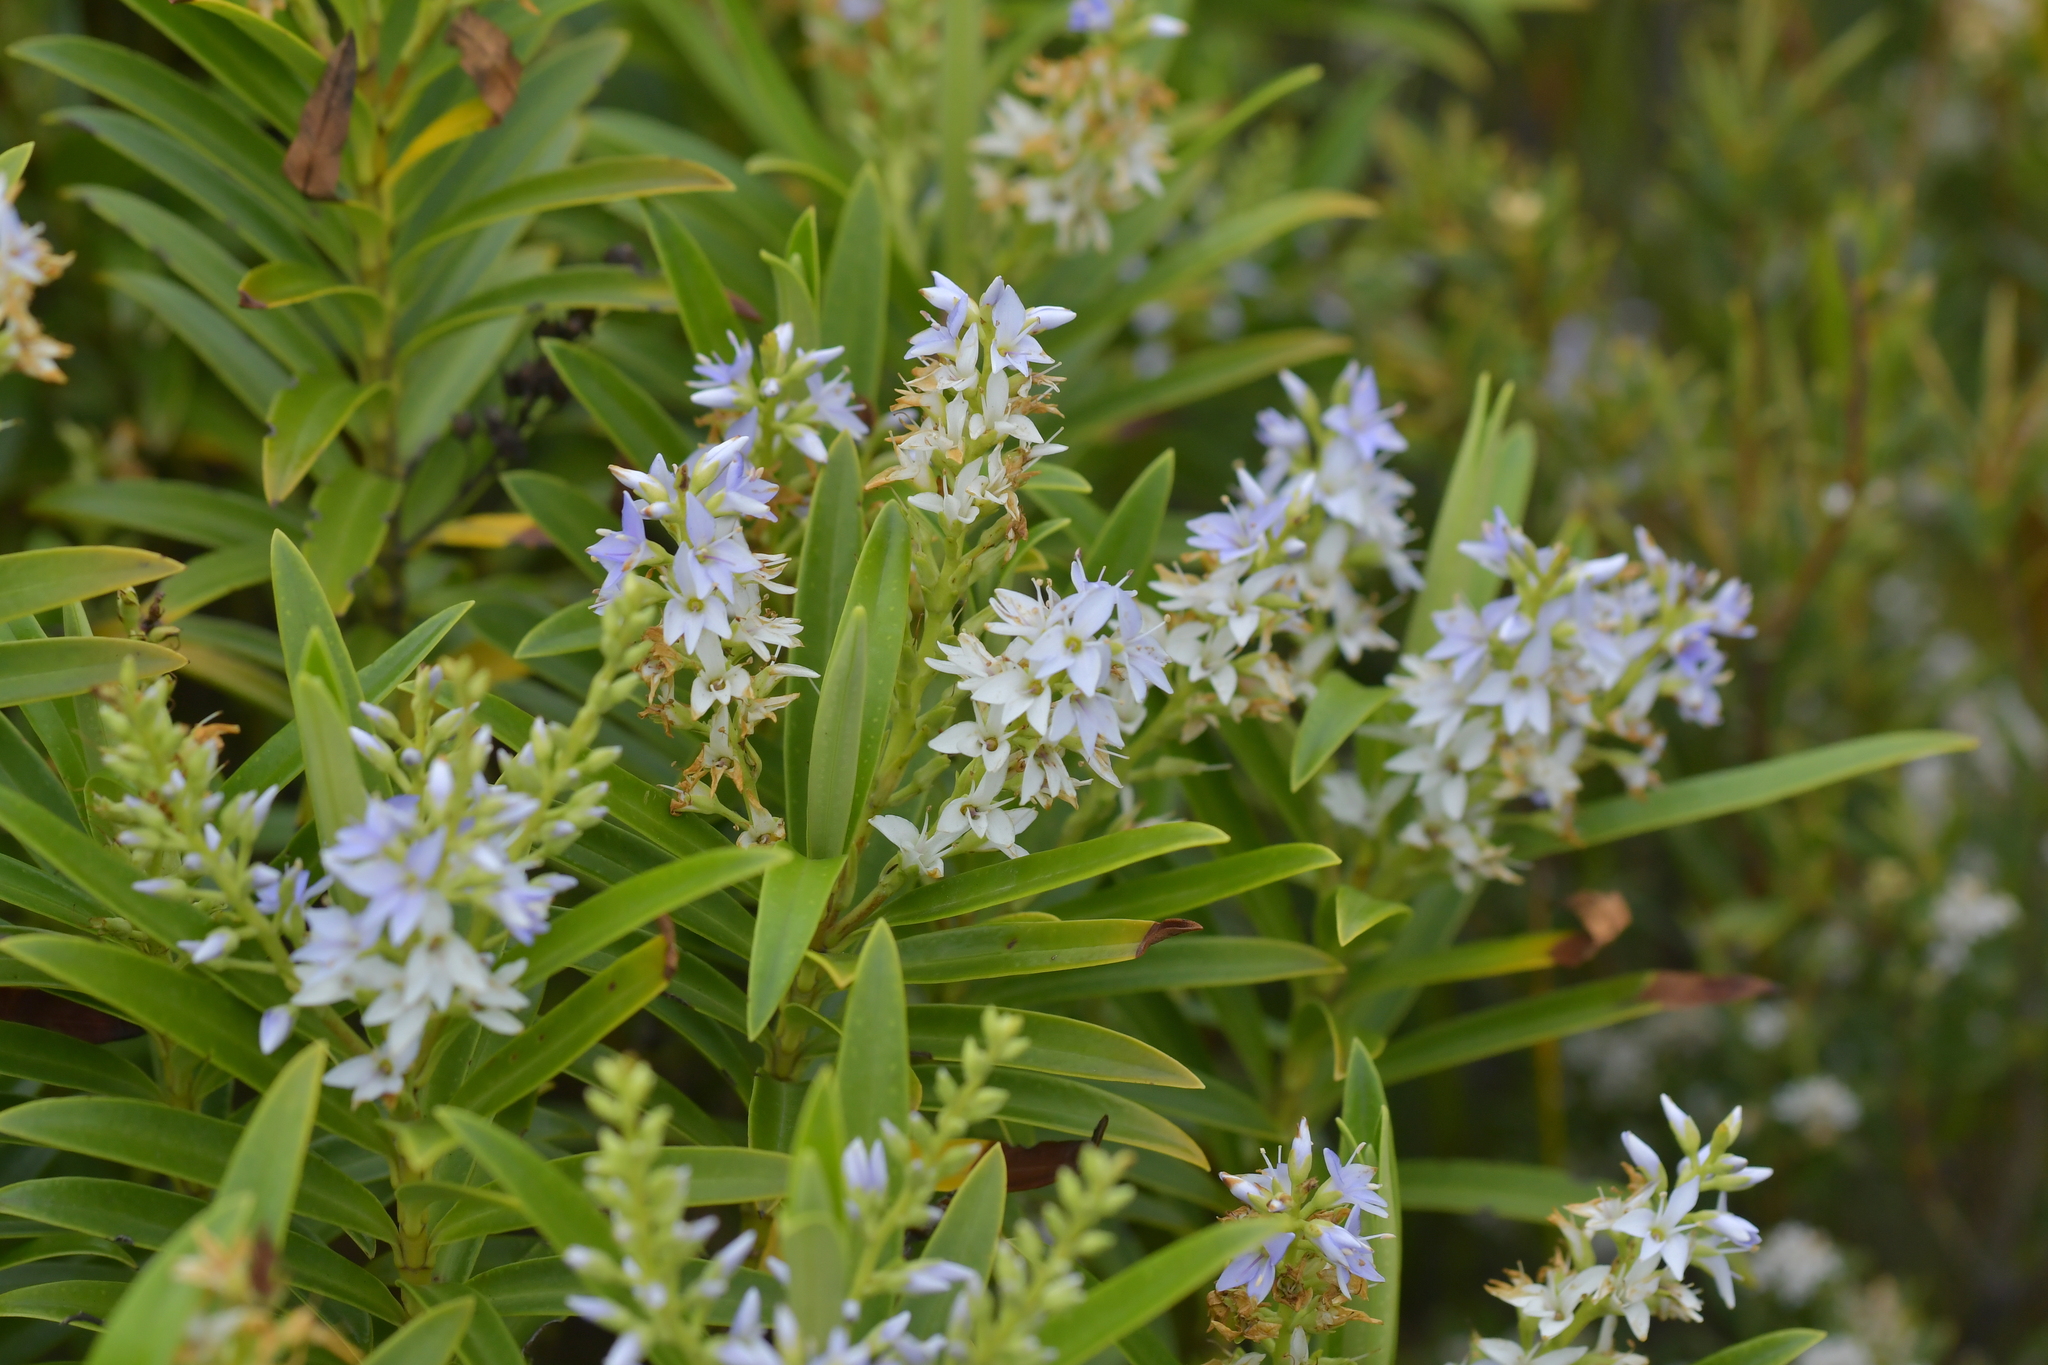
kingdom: Plantae
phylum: Tracheophyta
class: Magnoliopsida
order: Lamiales
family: Plantaginaceae
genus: Veronica
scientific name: Veronica dieffenbachii
